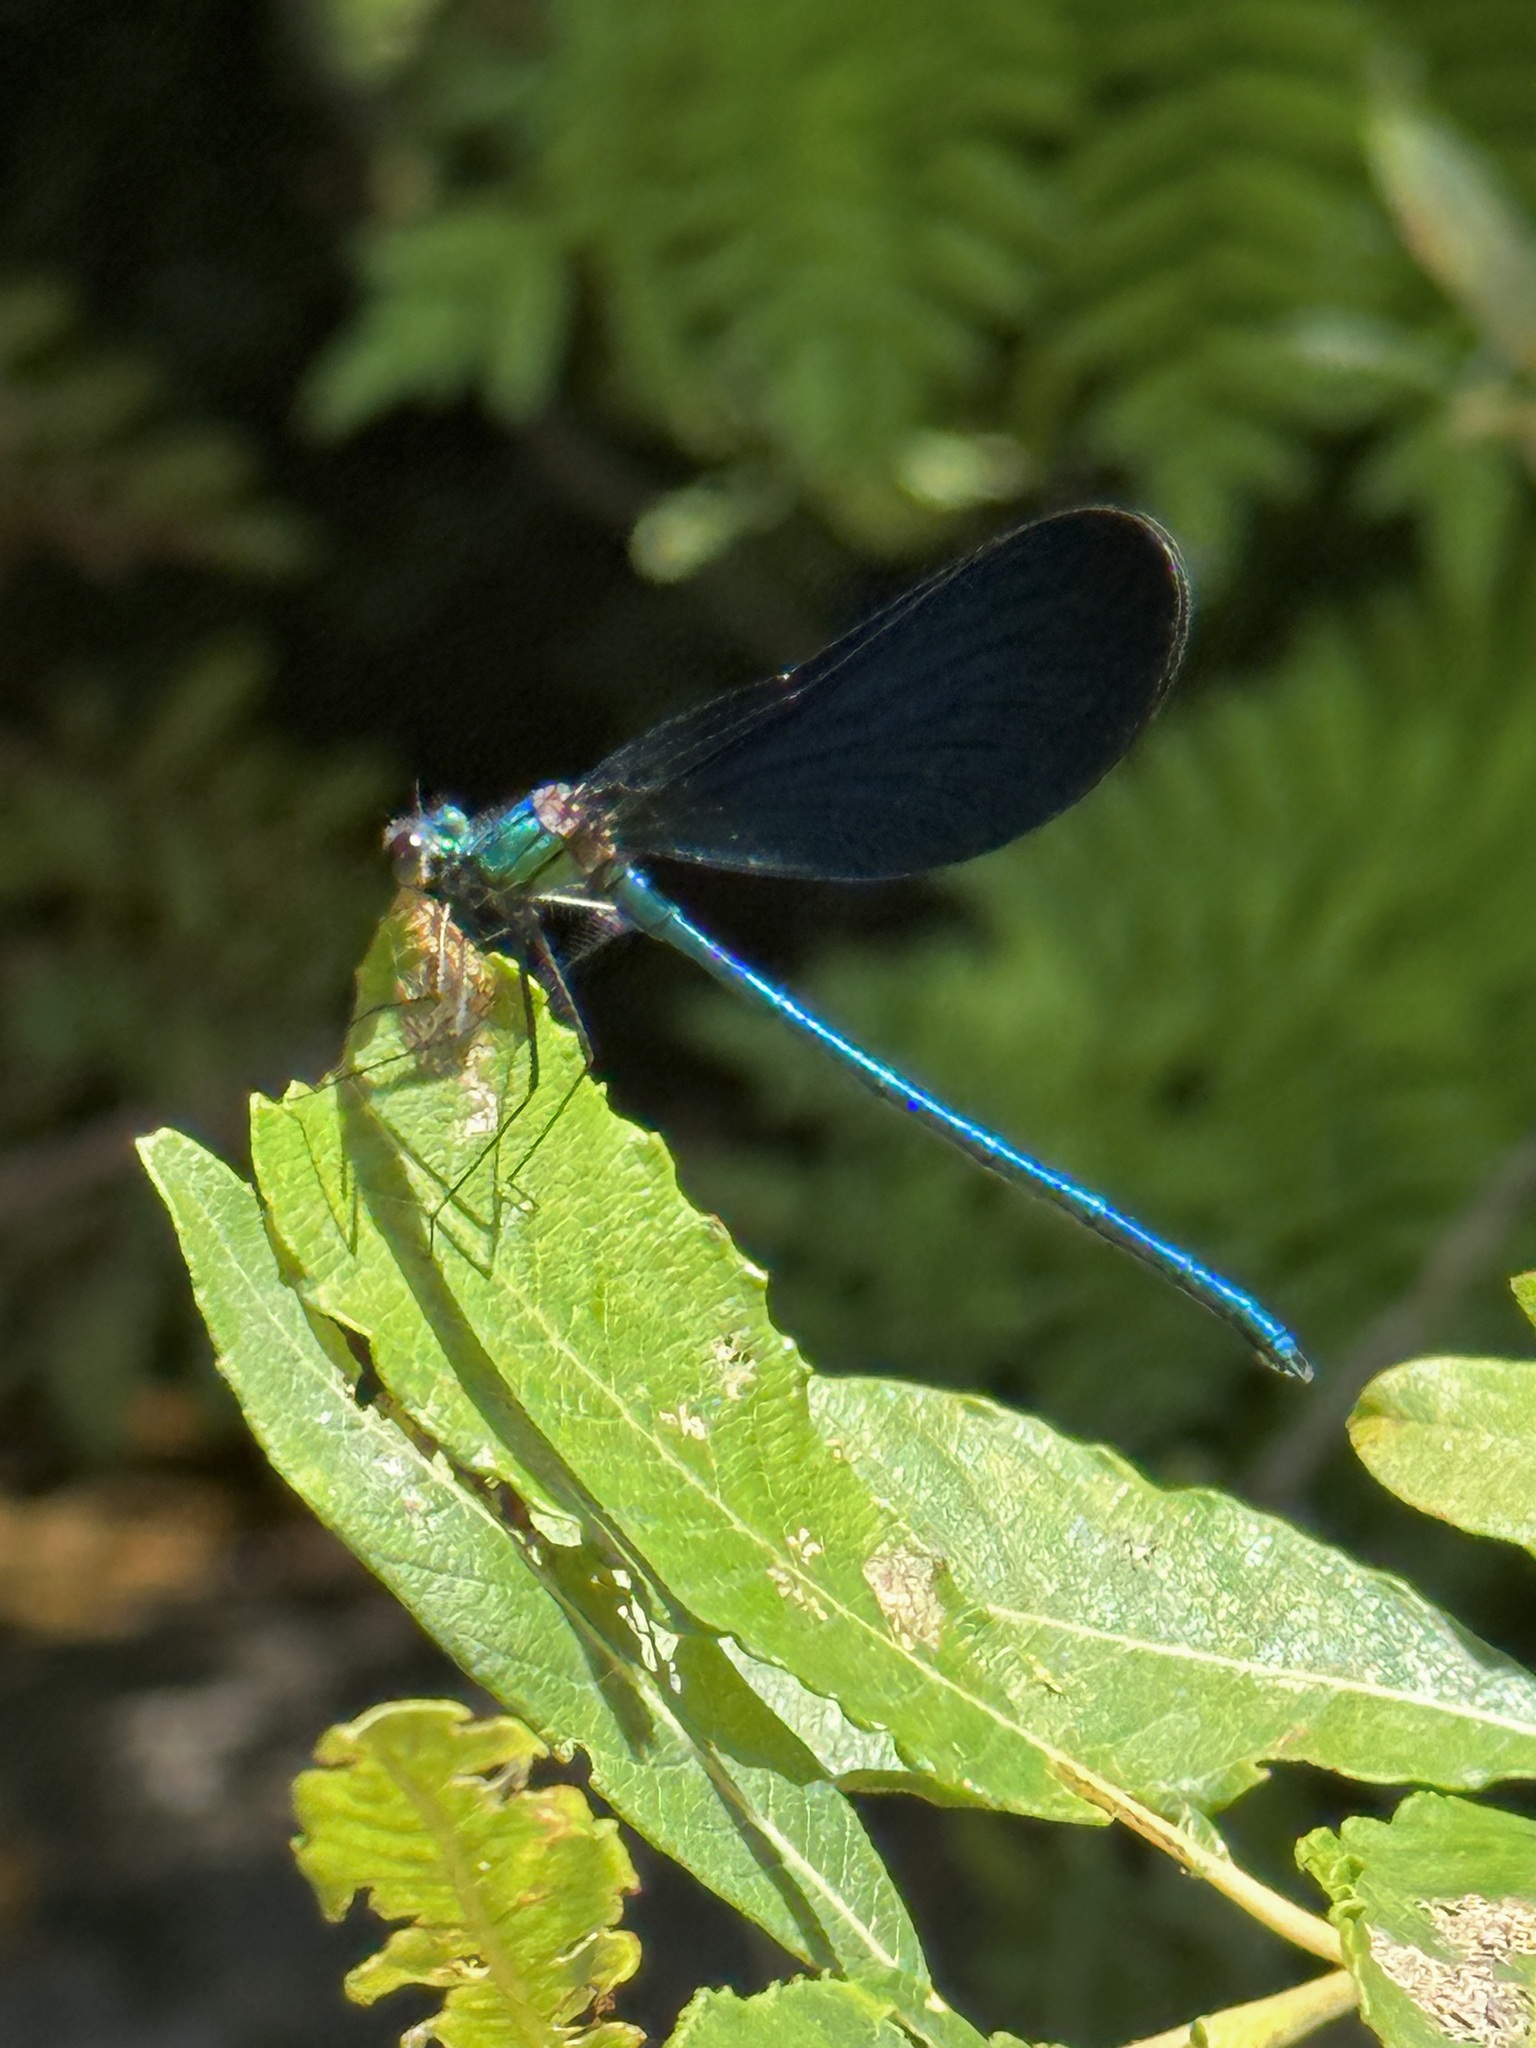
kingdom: Animalia
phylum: Arthropoda
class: Insecta
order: Odonata
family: Calopterygidae
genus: Calopteryx
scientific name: Calopteryx virgo
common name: Beautiful demoiselle
